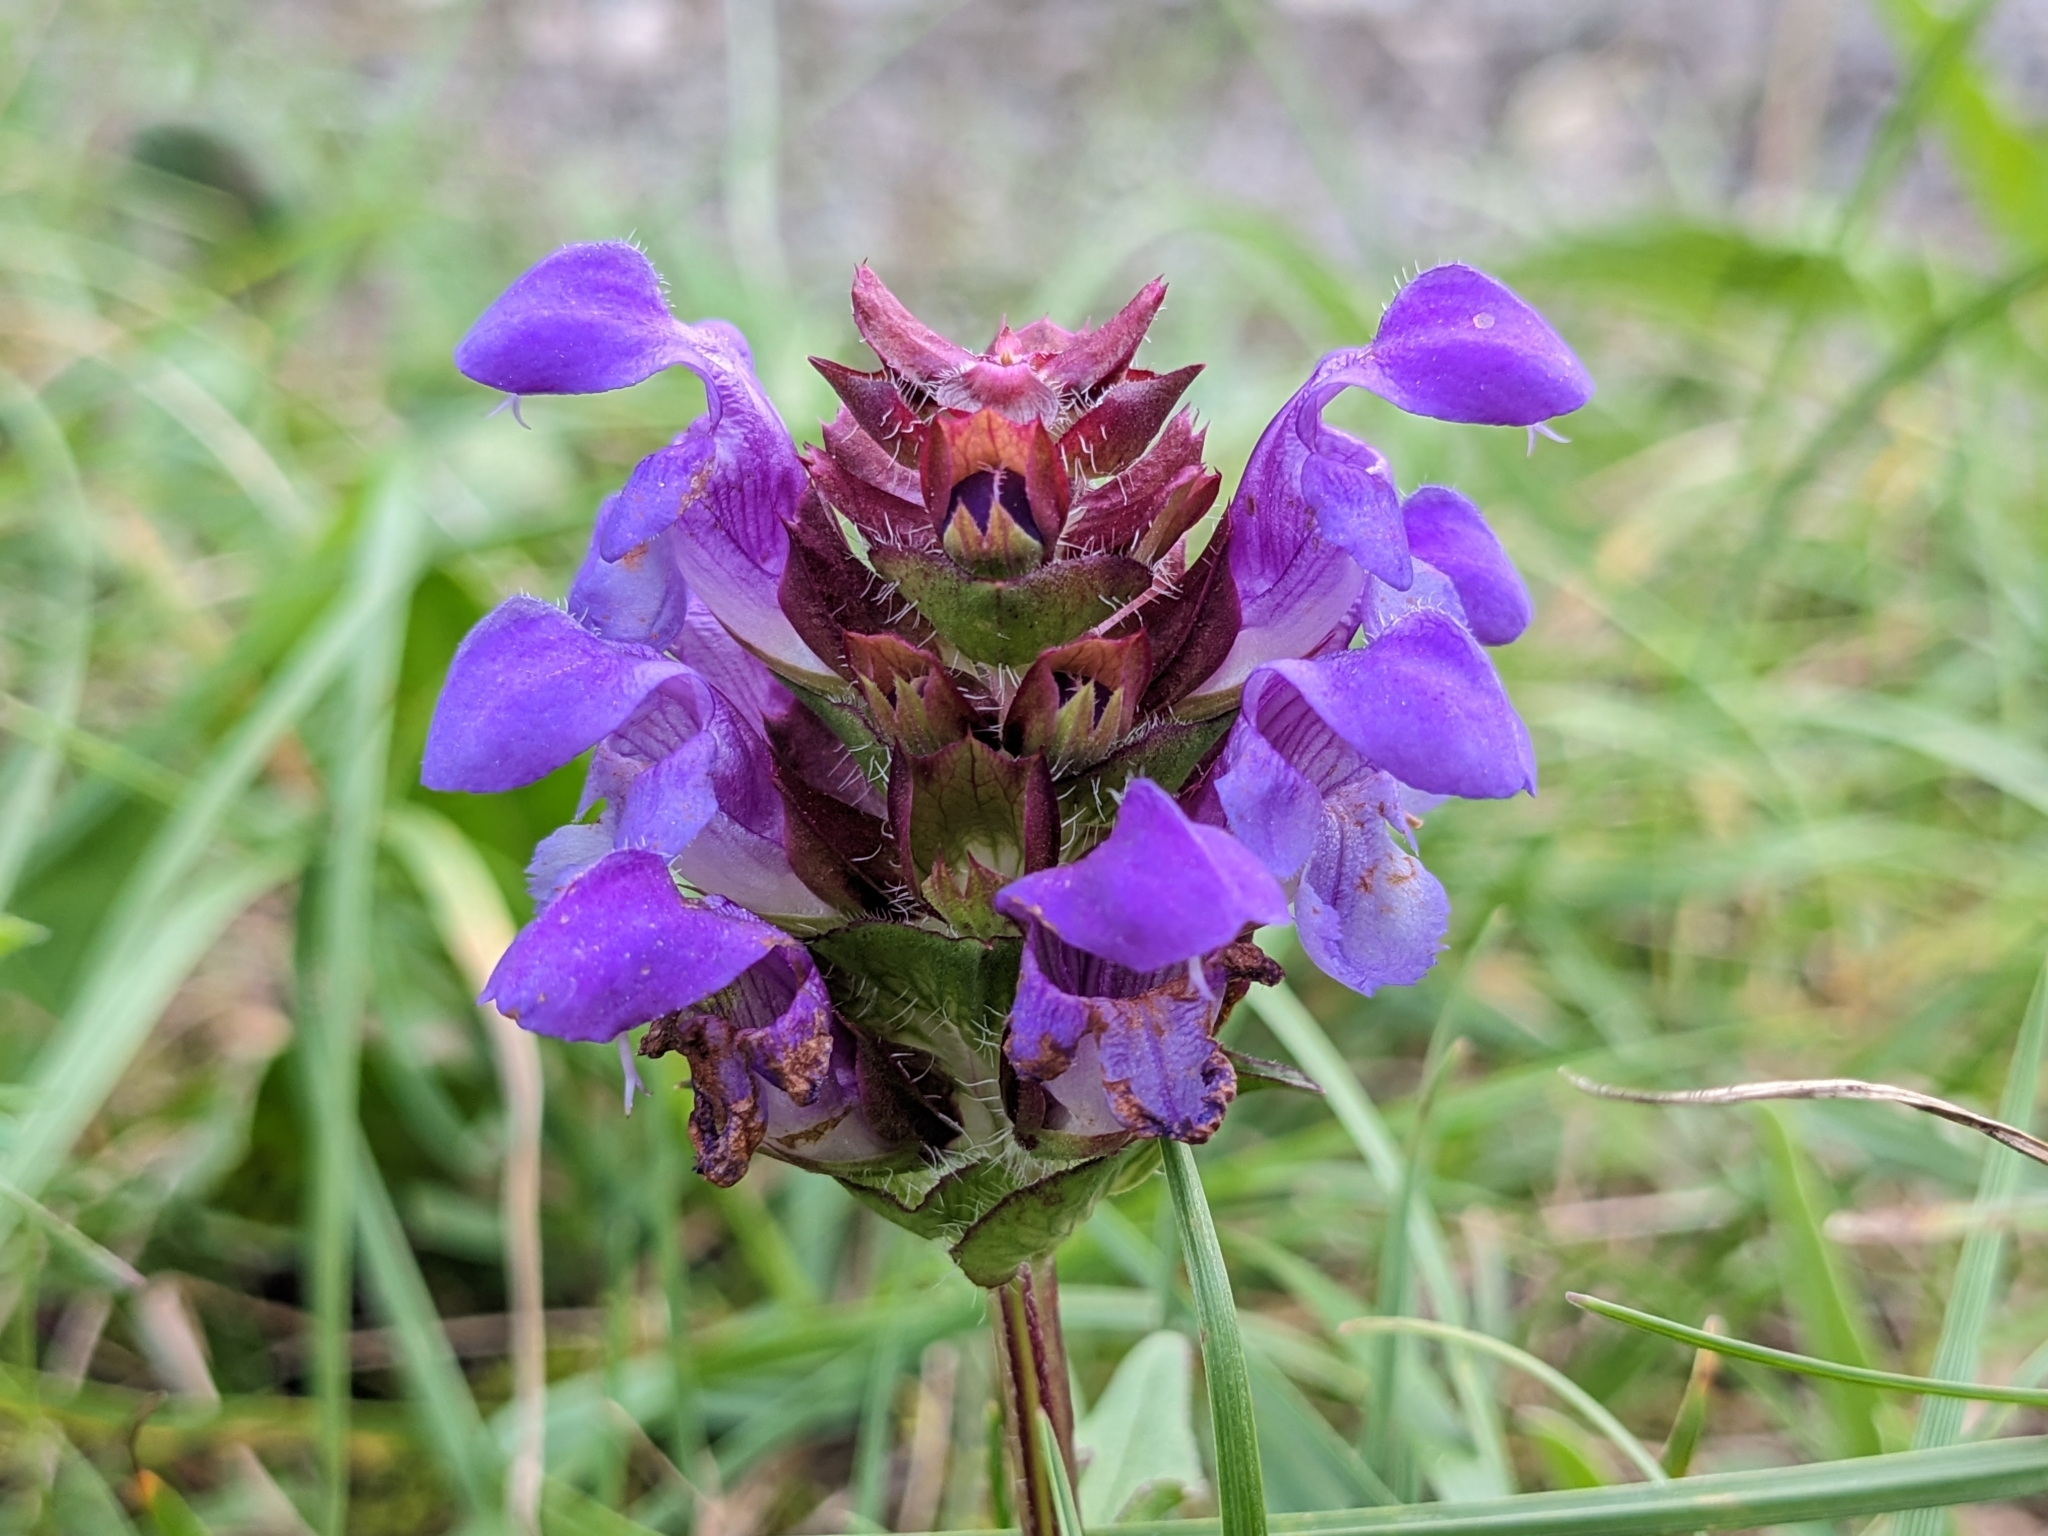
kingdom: Plantae
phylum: Tracheophyta
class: Magnoliopsida
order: Lamiales
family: Lamiaceae
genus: Prunella
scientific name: Prunella grandiflora
